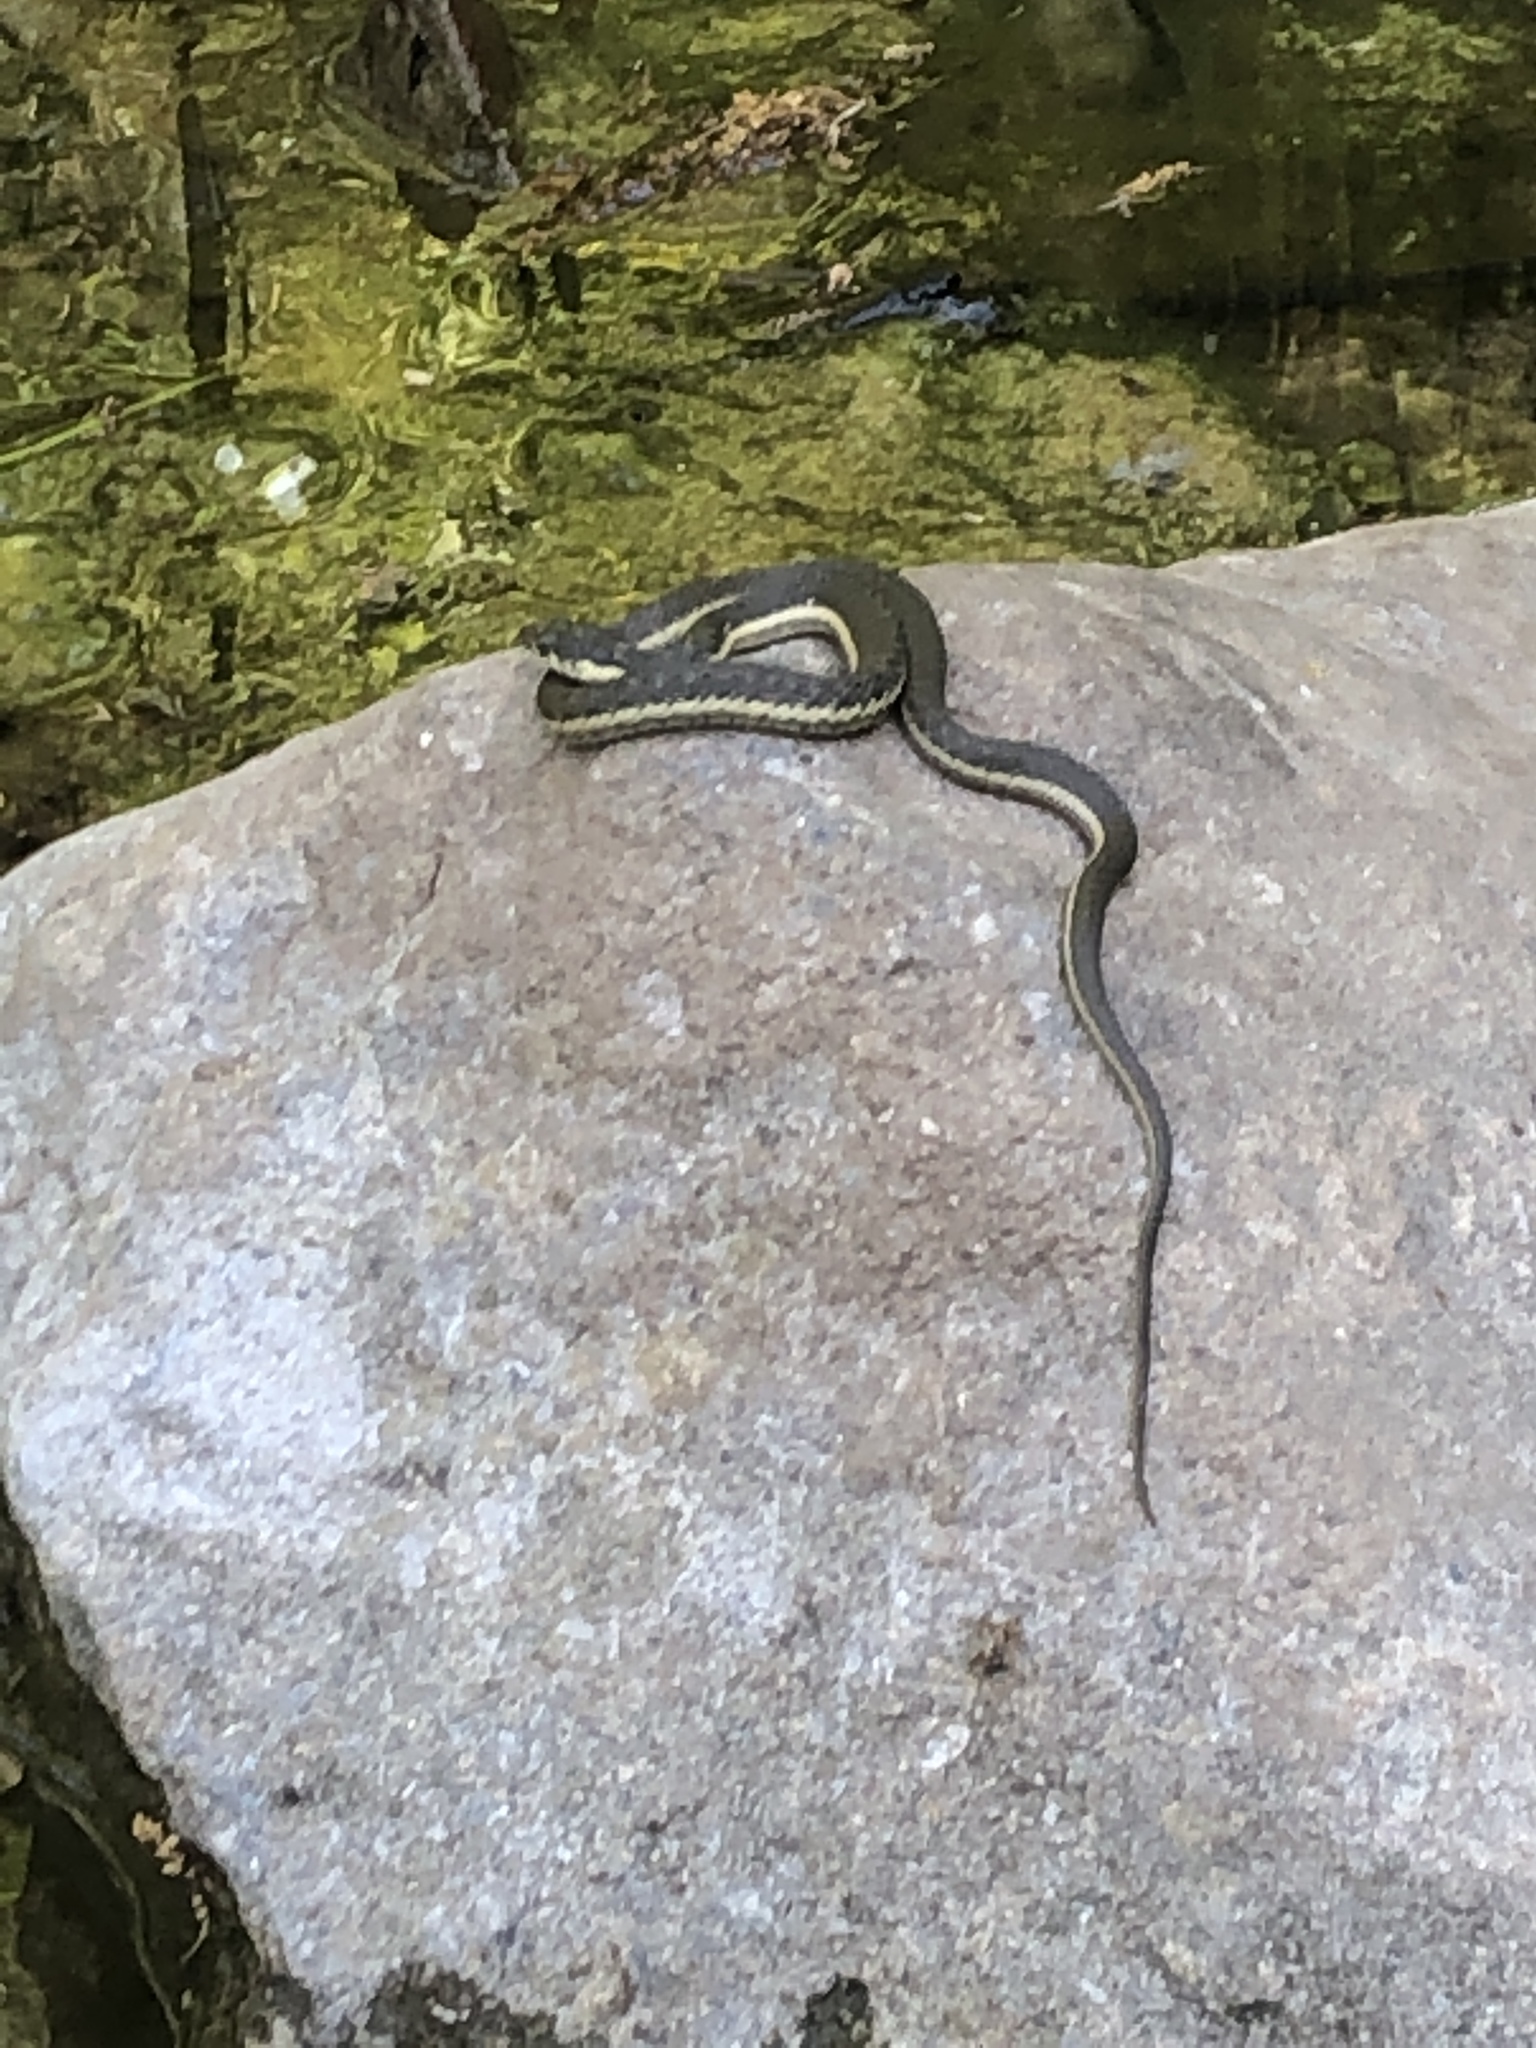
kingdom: Animalia
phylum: Chordata
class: Squamata
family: Colubridae
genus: Thamnophis
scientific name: Thamnophis hammondii
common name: Two-striped garter snake
